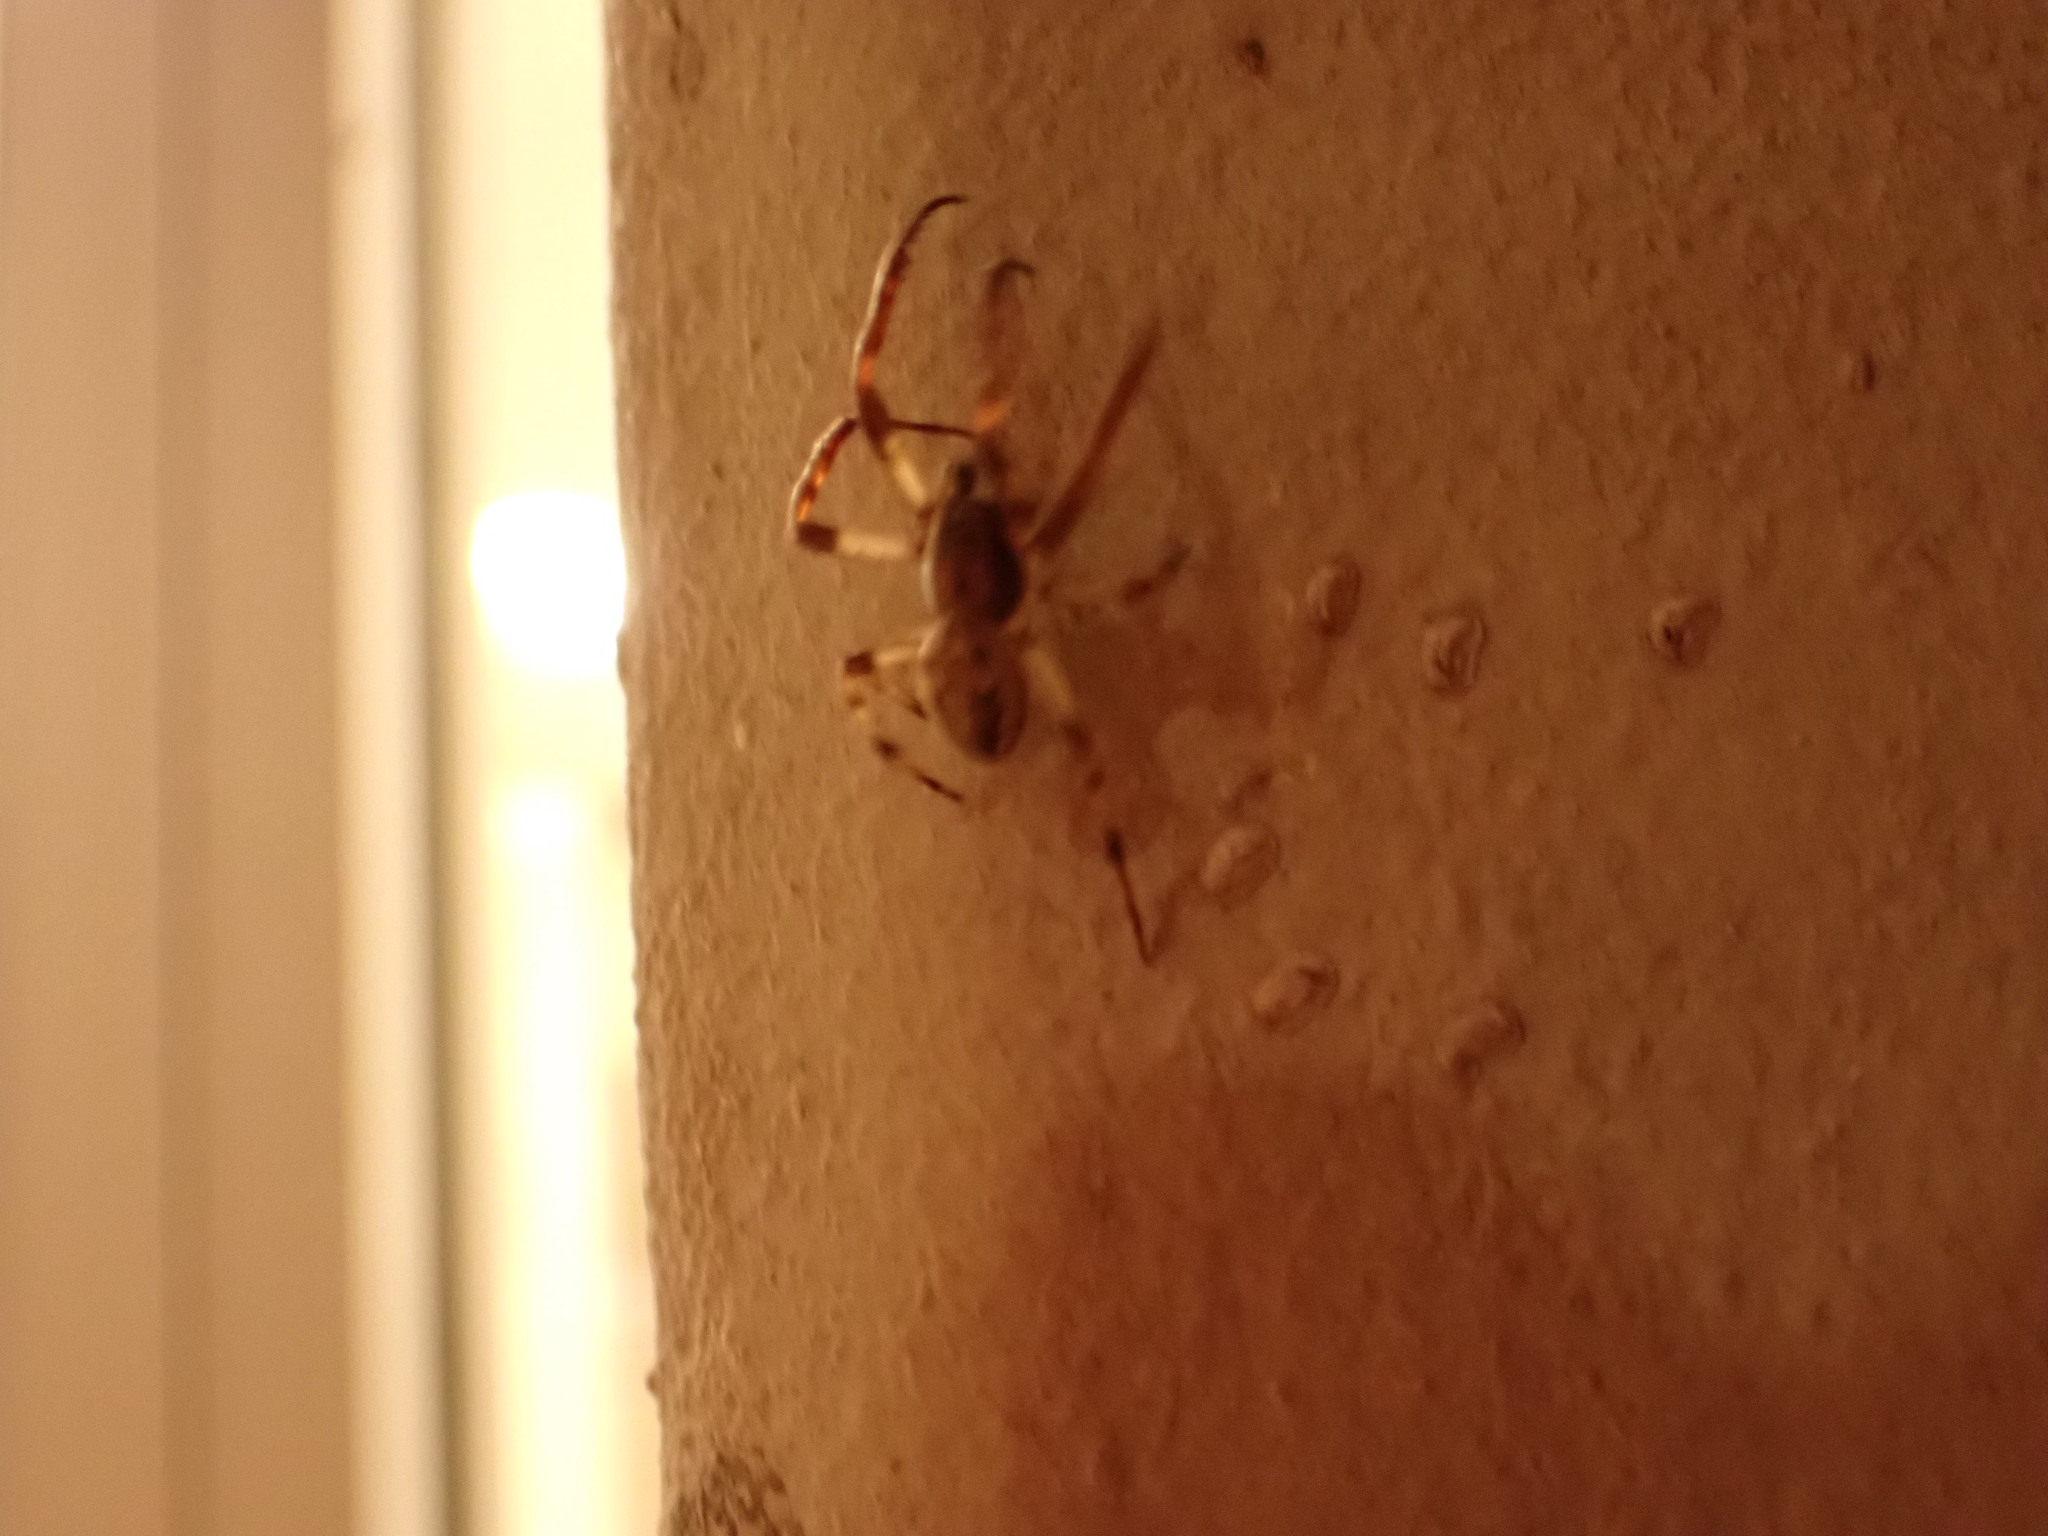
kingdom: Animalia
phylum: Arthropoda
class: Arachnida
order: Araneae
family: Araneidae
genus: Larinioides
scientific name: Larinioides cornutus
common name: Furrow orbweaver
